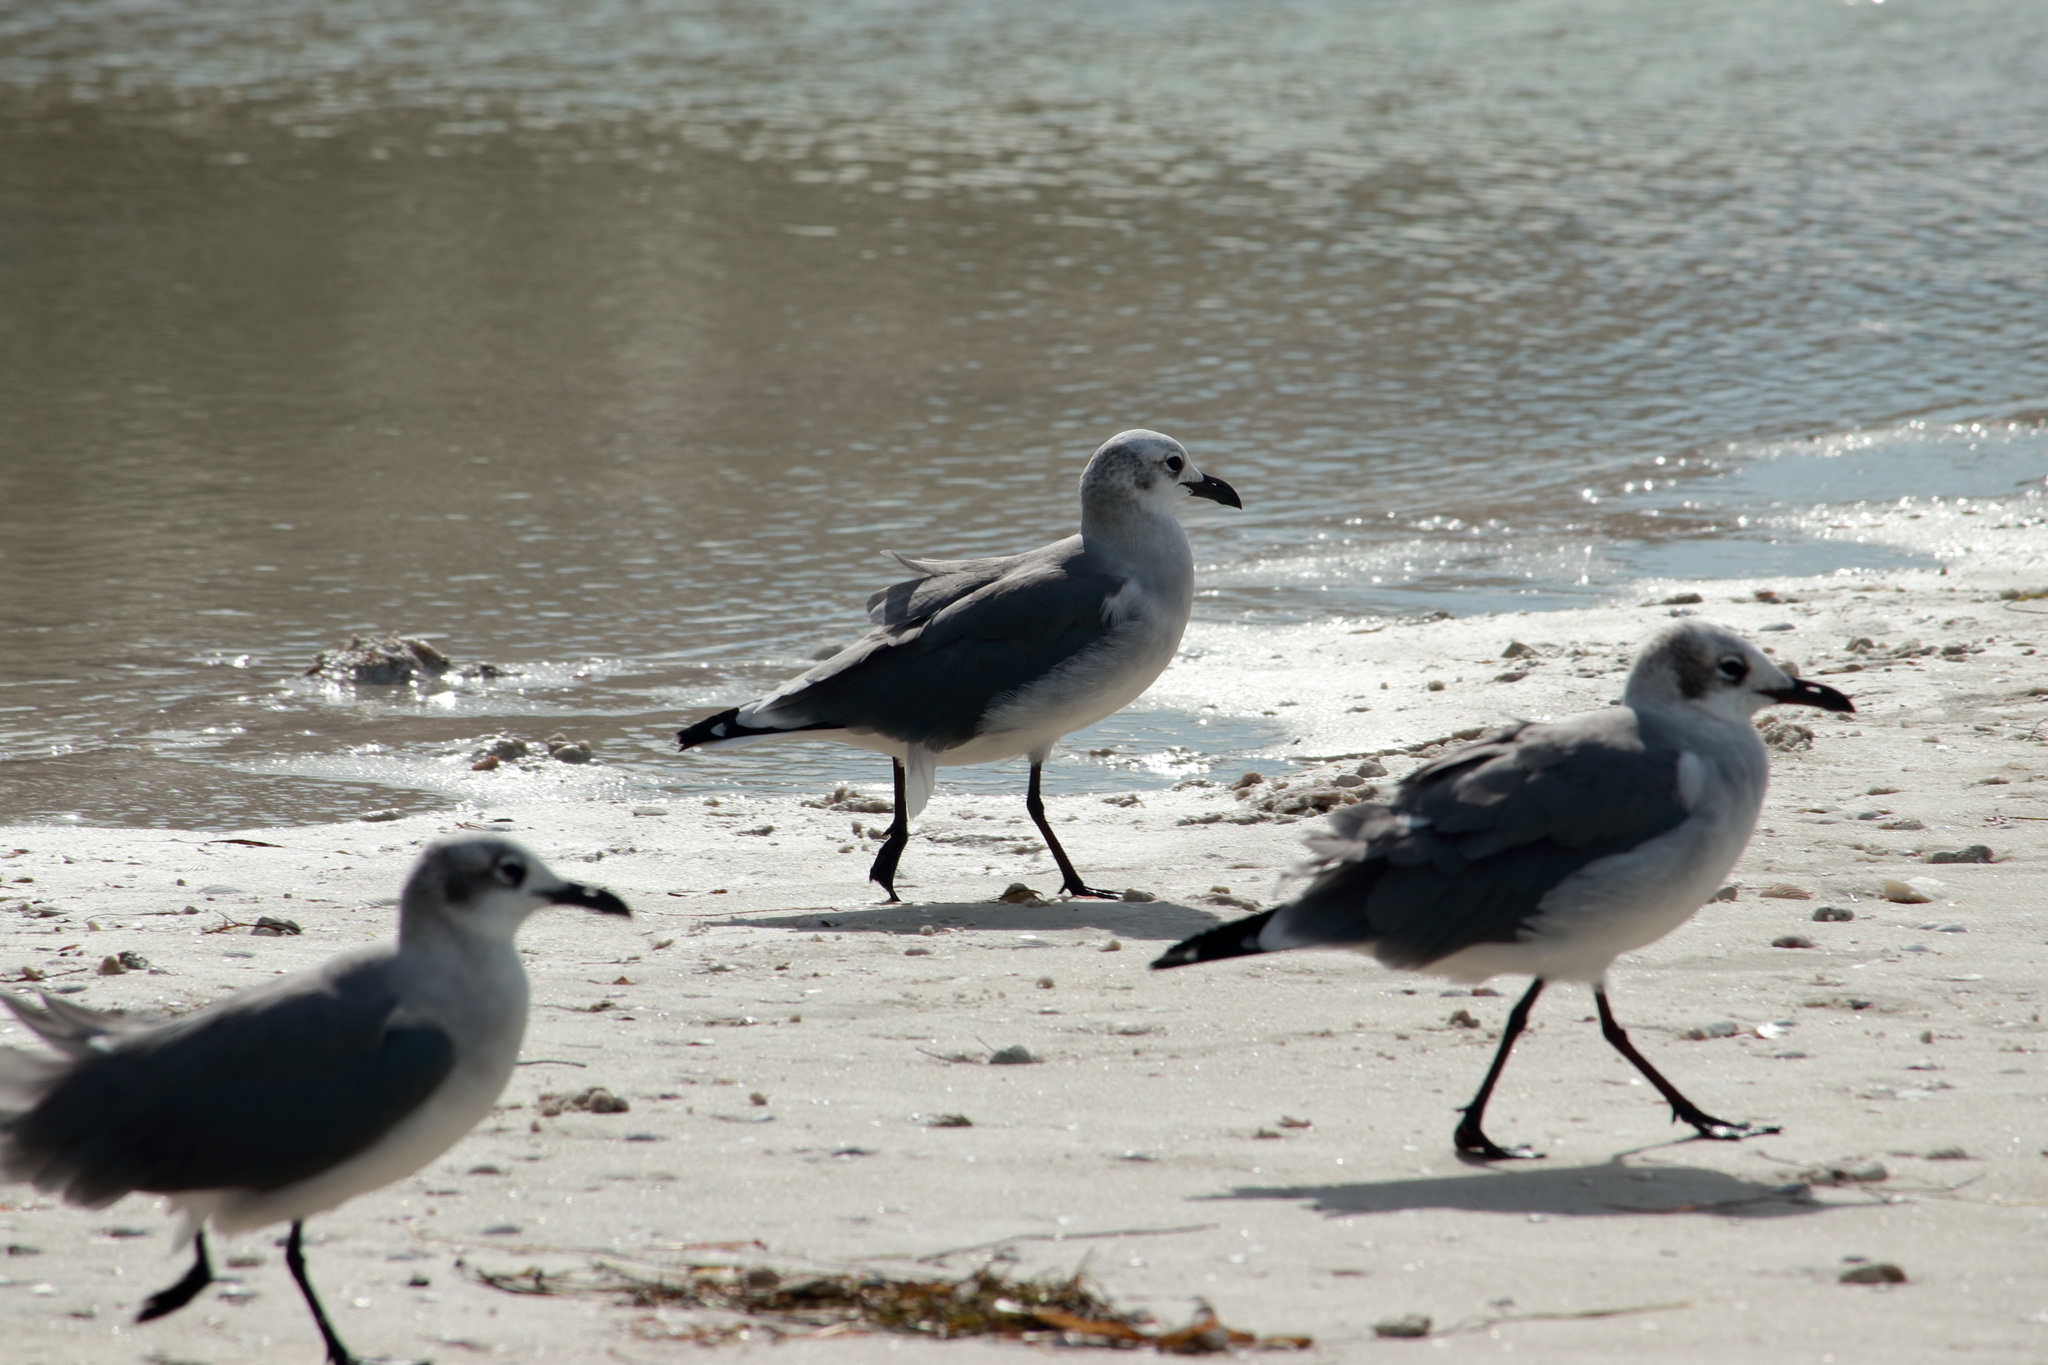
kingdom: Animalia
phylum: Chordata
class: Aves
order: Charadriiformes
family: Laridae
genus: Leucophaeus
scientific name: Leucophaeus atricilla
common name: Laughing gull
